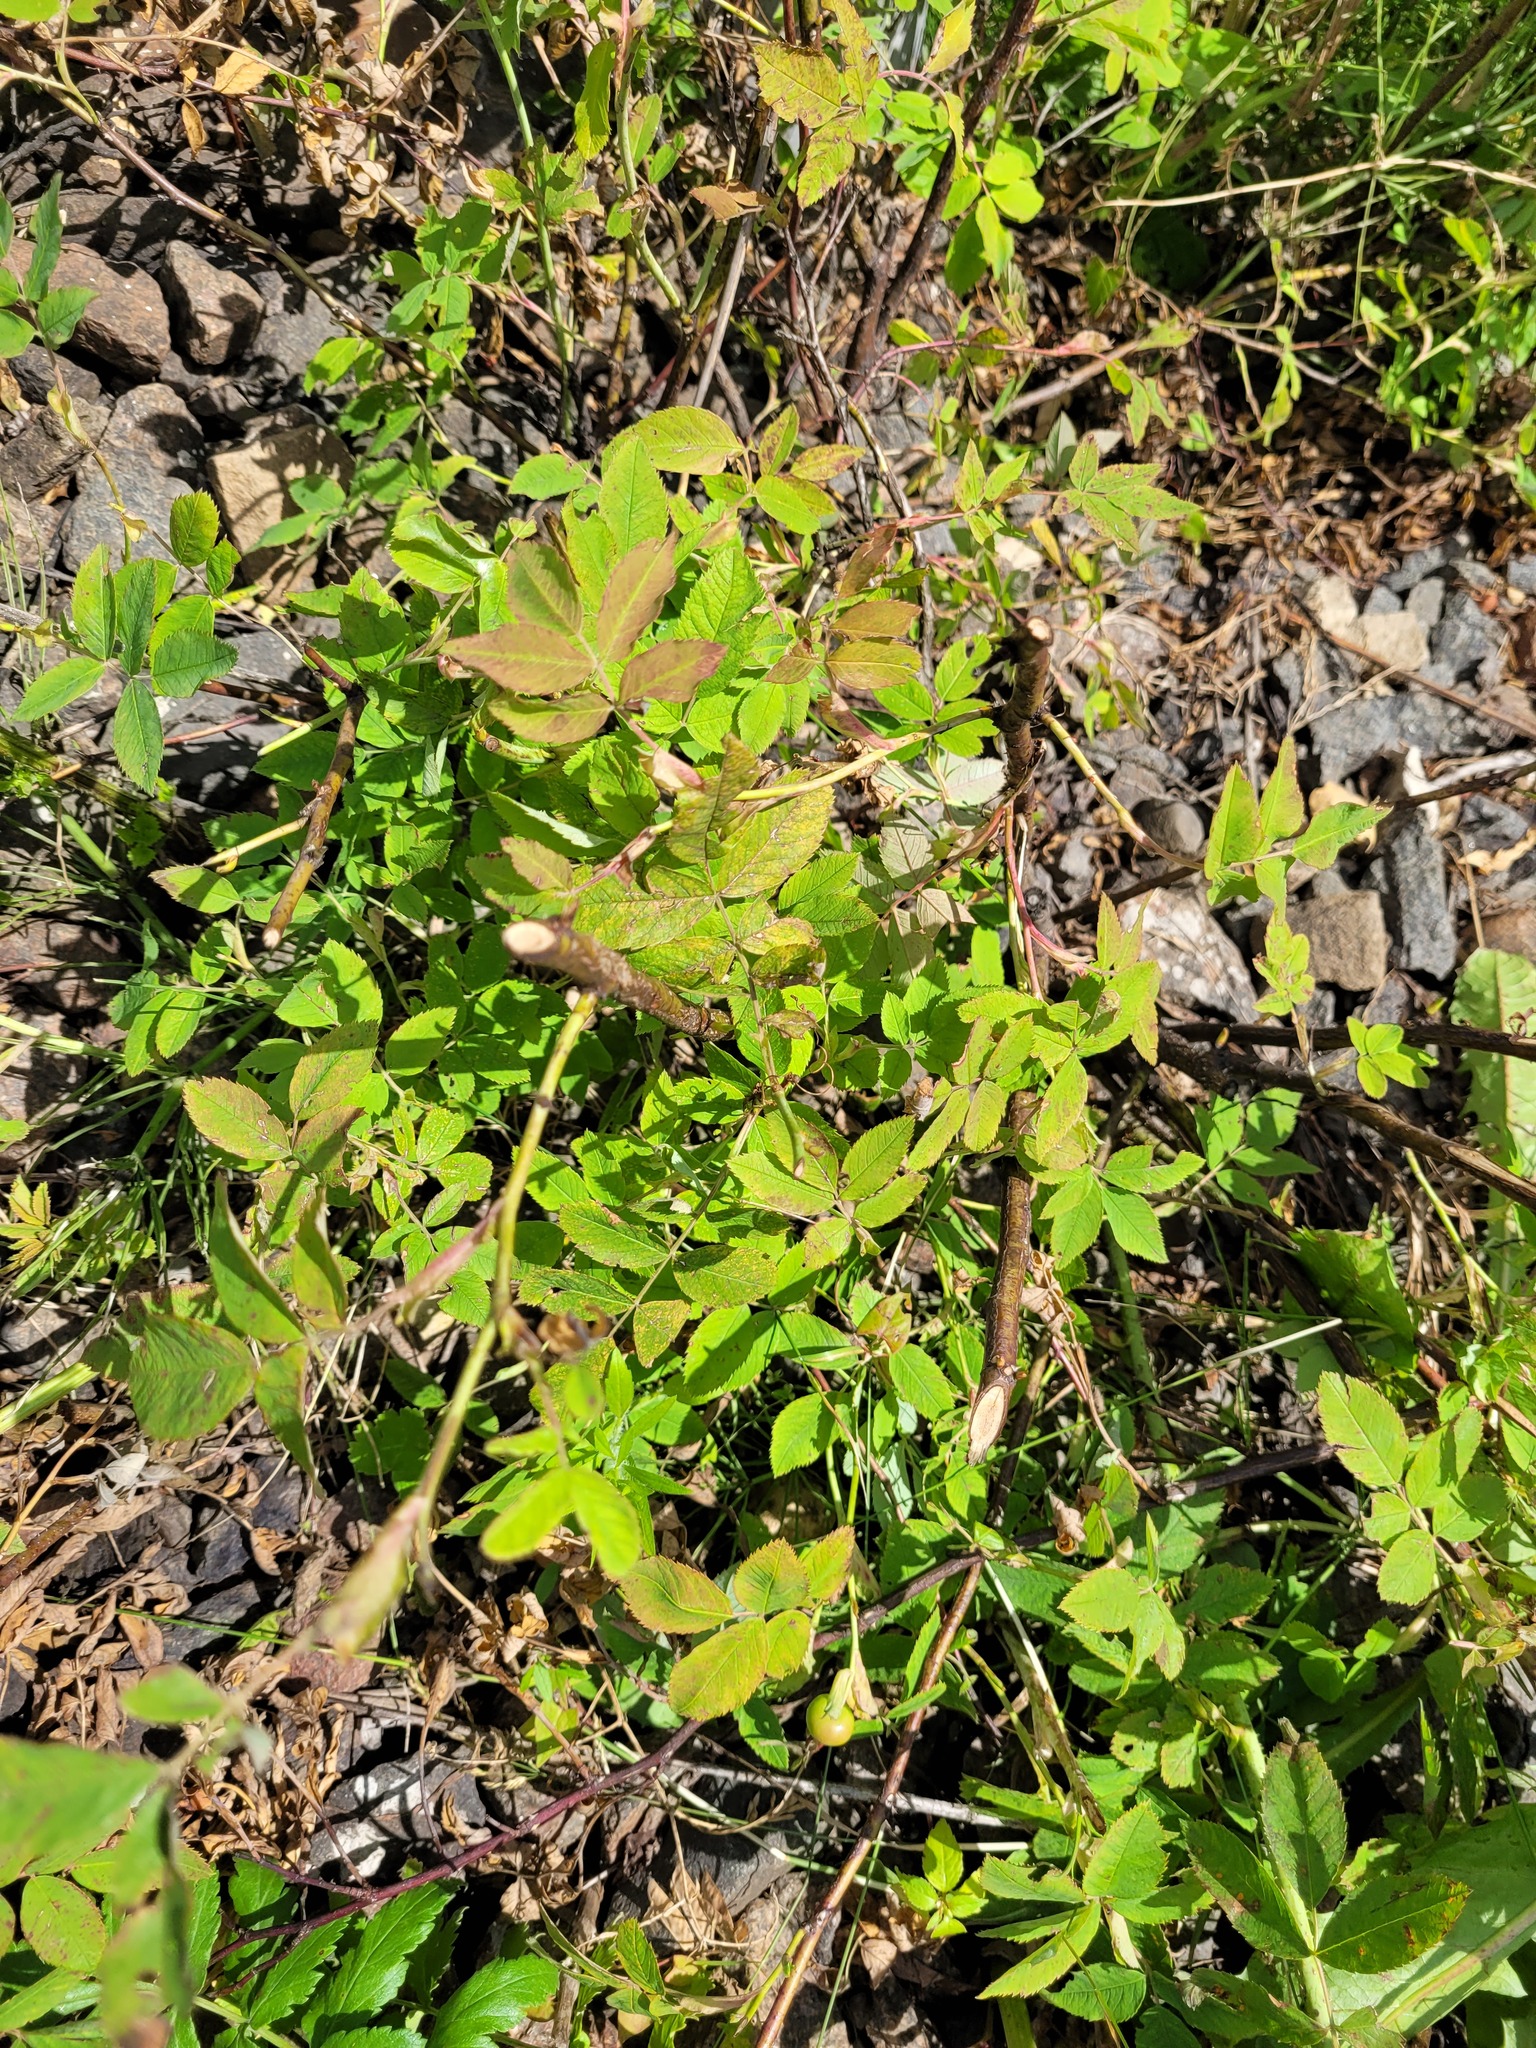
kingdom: Plantae
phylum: Tracheophyta
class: Magnoliopsida
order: Rosales
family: Rosaceae
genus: Rosa
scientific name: Rosa majalis
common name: Cinnamon rose
